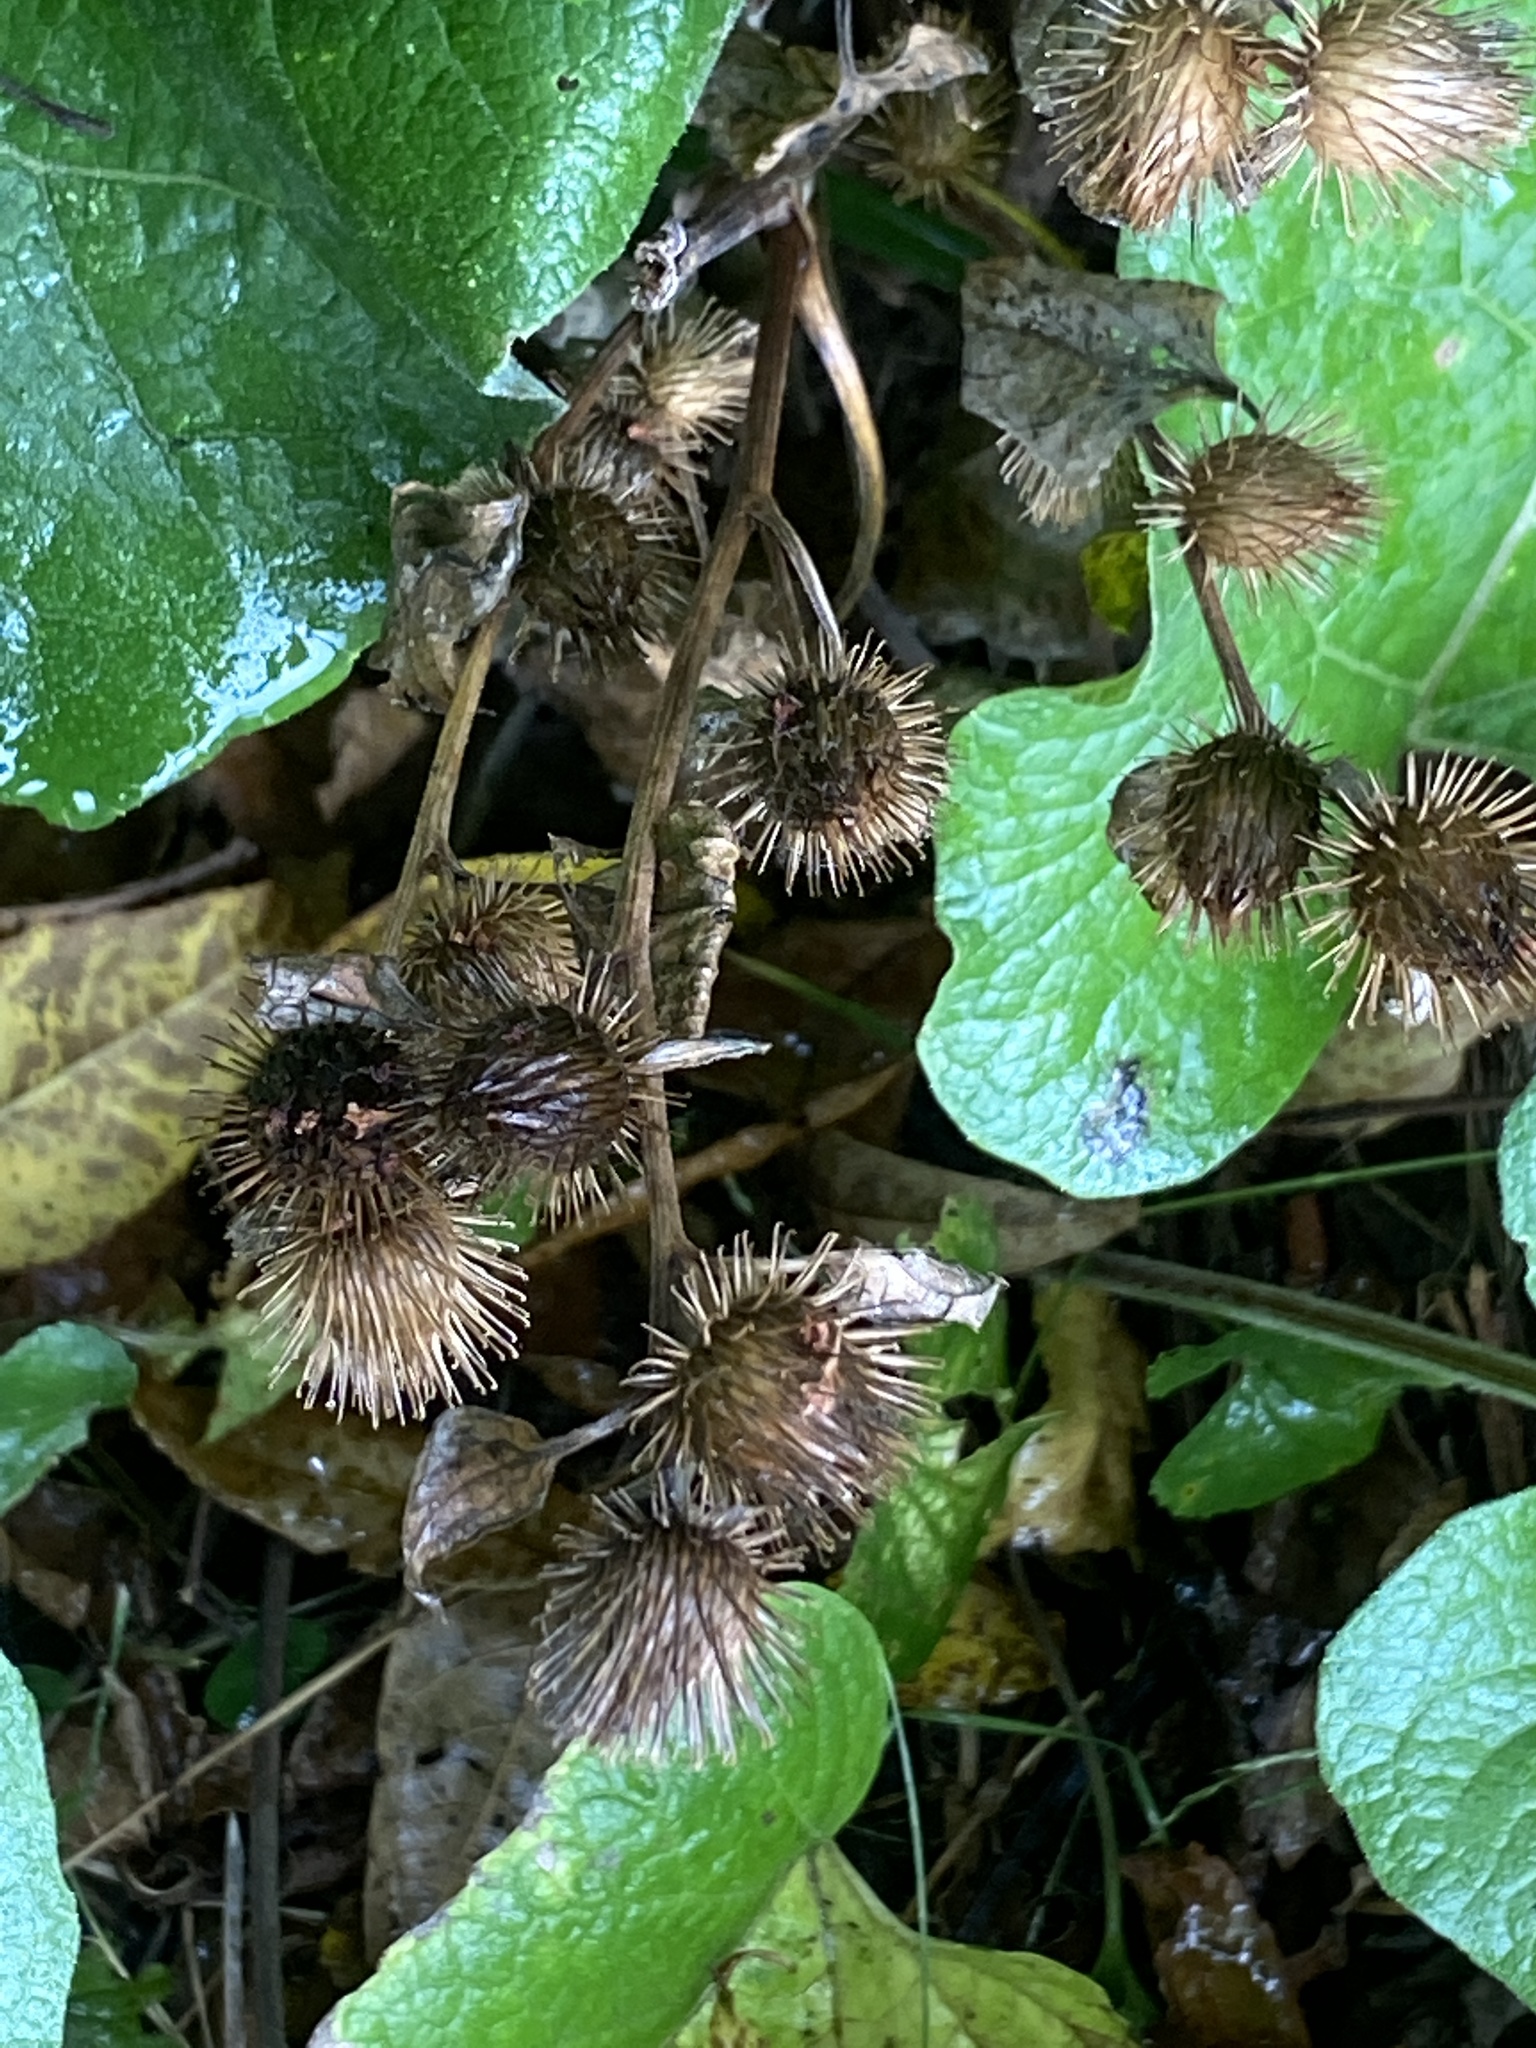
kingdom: Plantae
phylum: Tracheophyta
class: Magnoliopsida
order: Asterales
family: Asteraceae
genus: Arctium
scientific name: Arctium minus
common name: Lesser burdock
